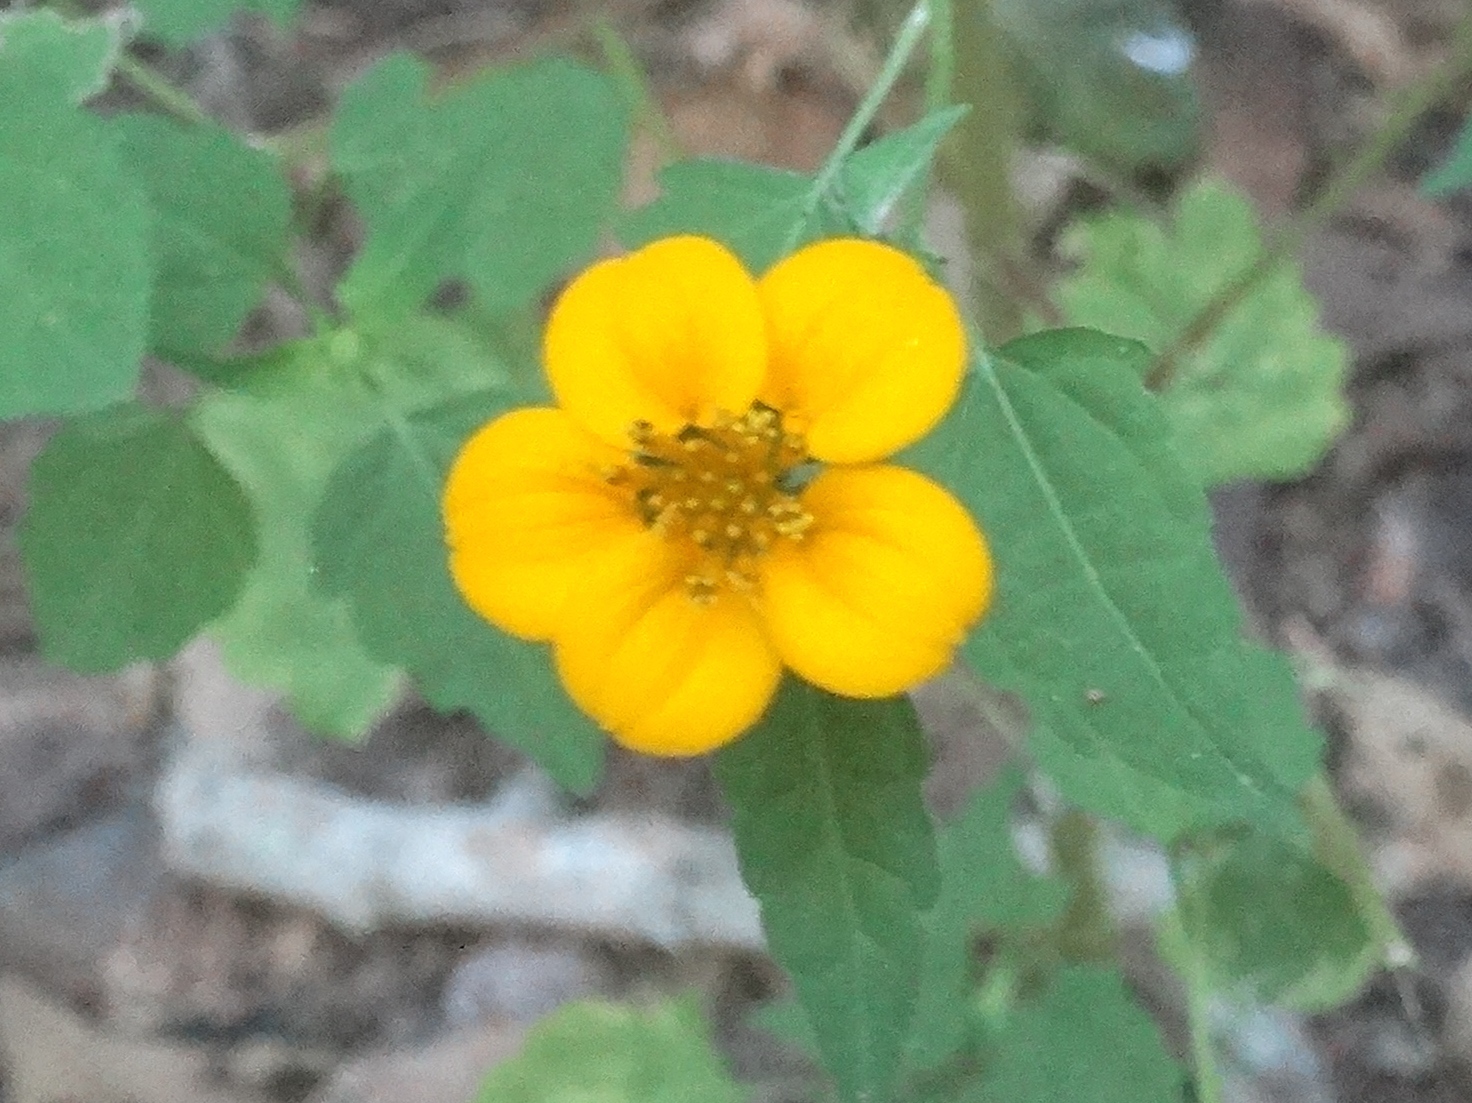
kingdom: Plantae
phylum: Tracheophyta
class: Magnoliopsida
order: Asterales
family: Asteraceae
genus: Sclerocarpus
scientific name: Sclerocarpus divaricatus
